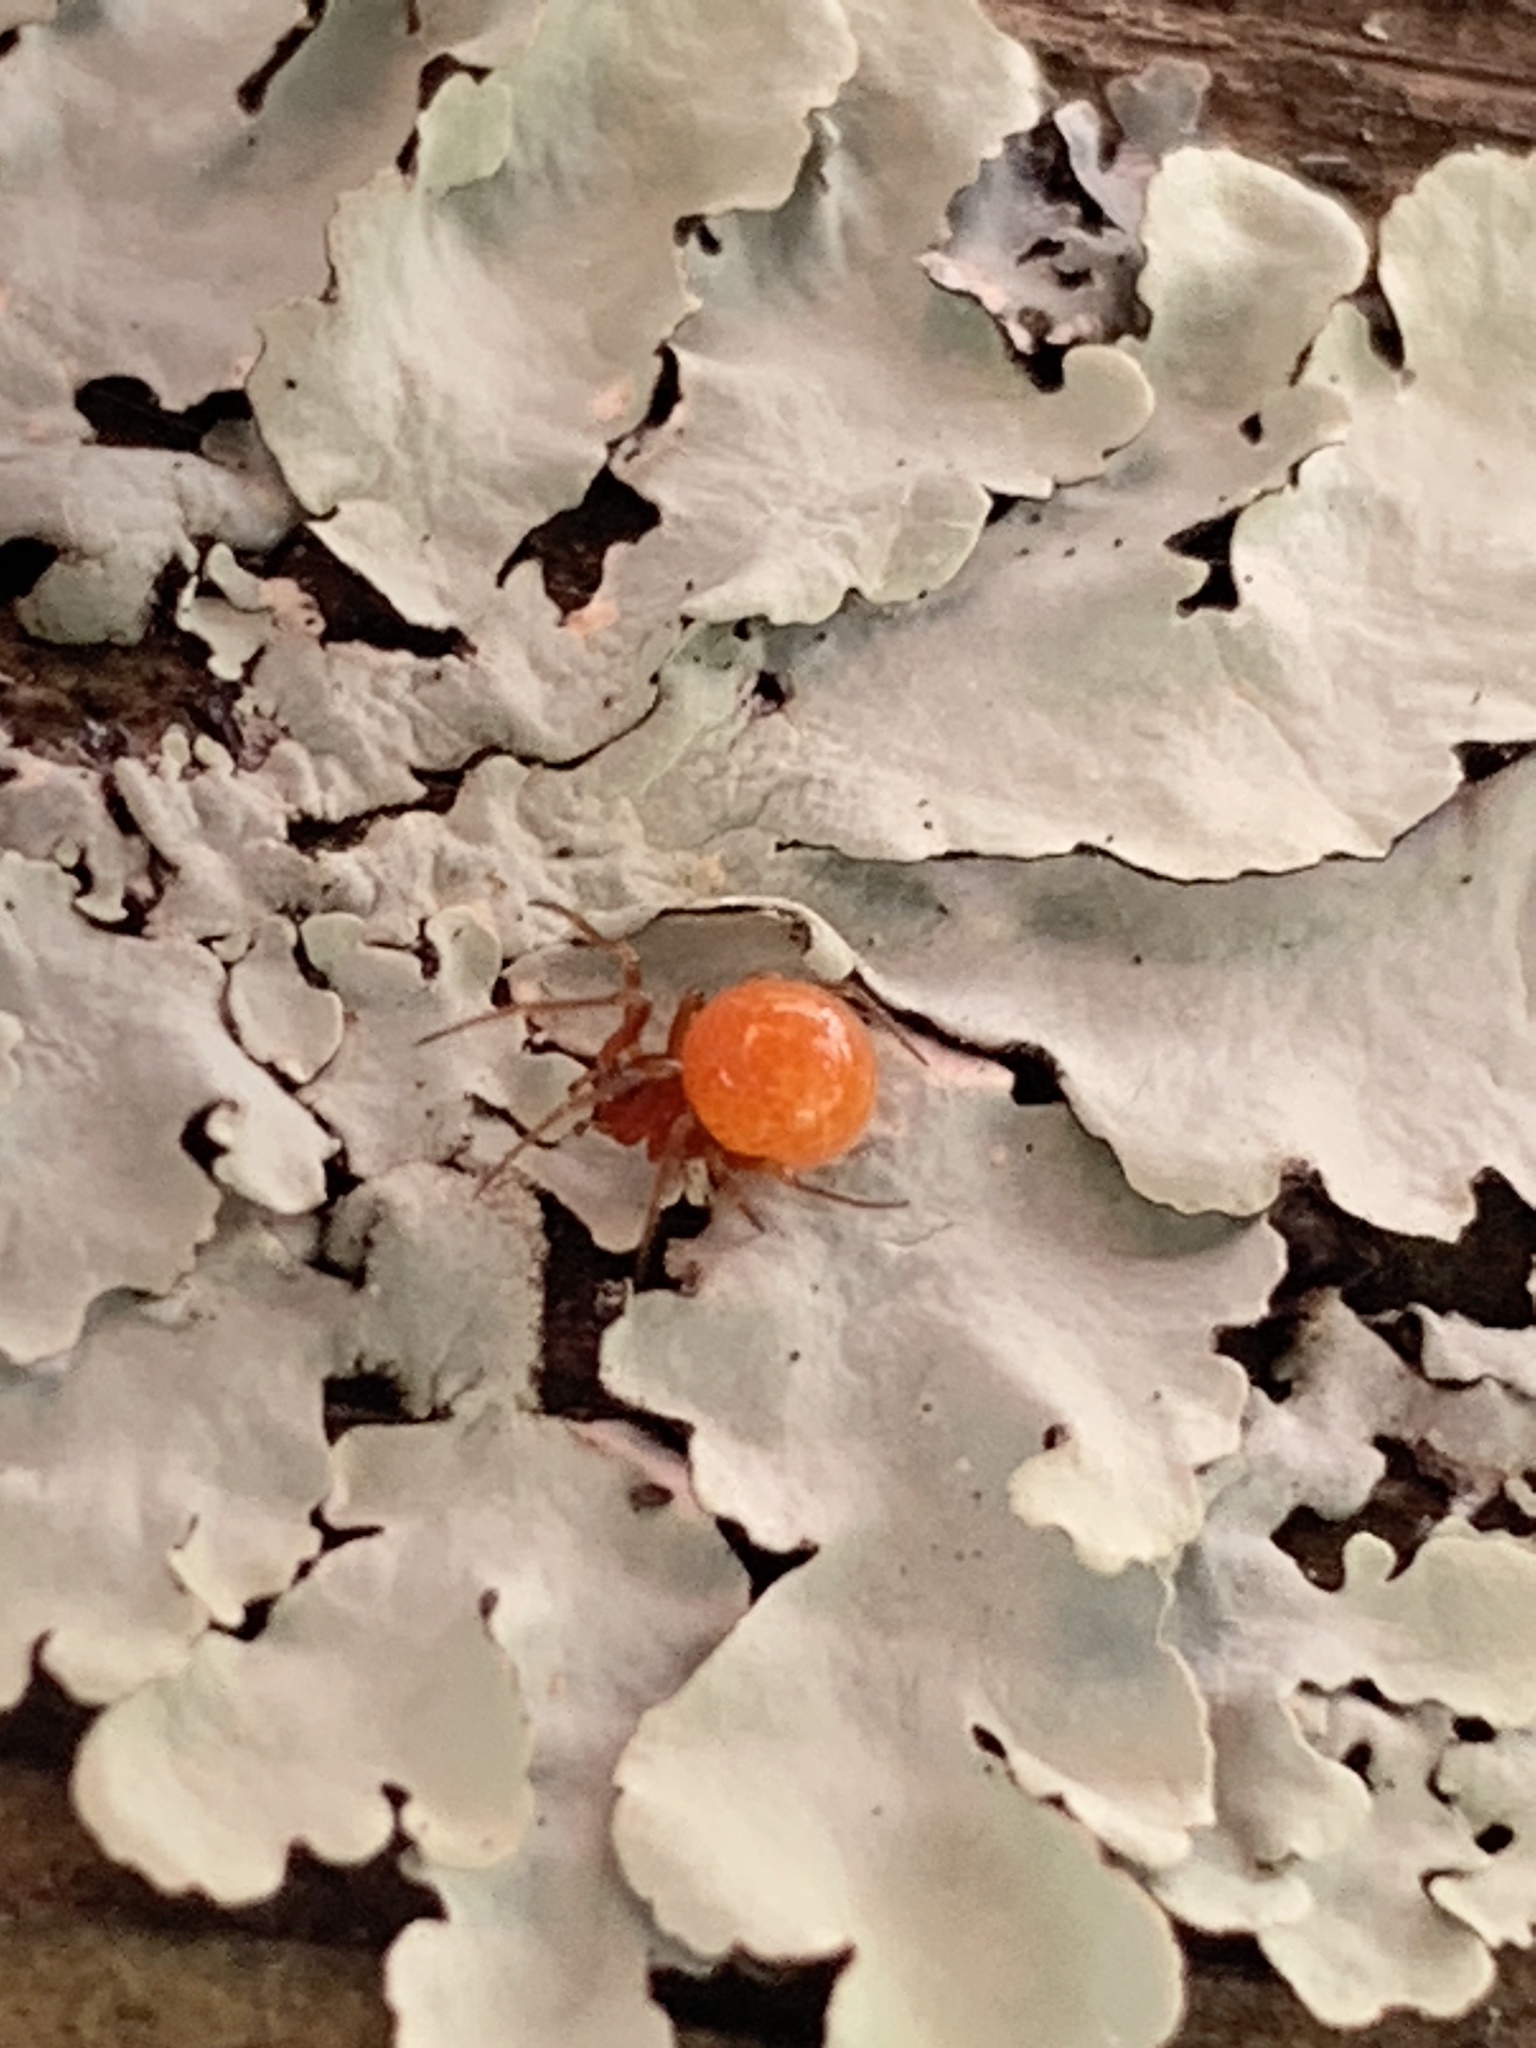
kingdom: Animalia
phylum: Arthropoda
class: Arachnida
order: Araneae
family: Theridiidae
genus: Thymoites
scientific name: Thymoites unimaculatus
